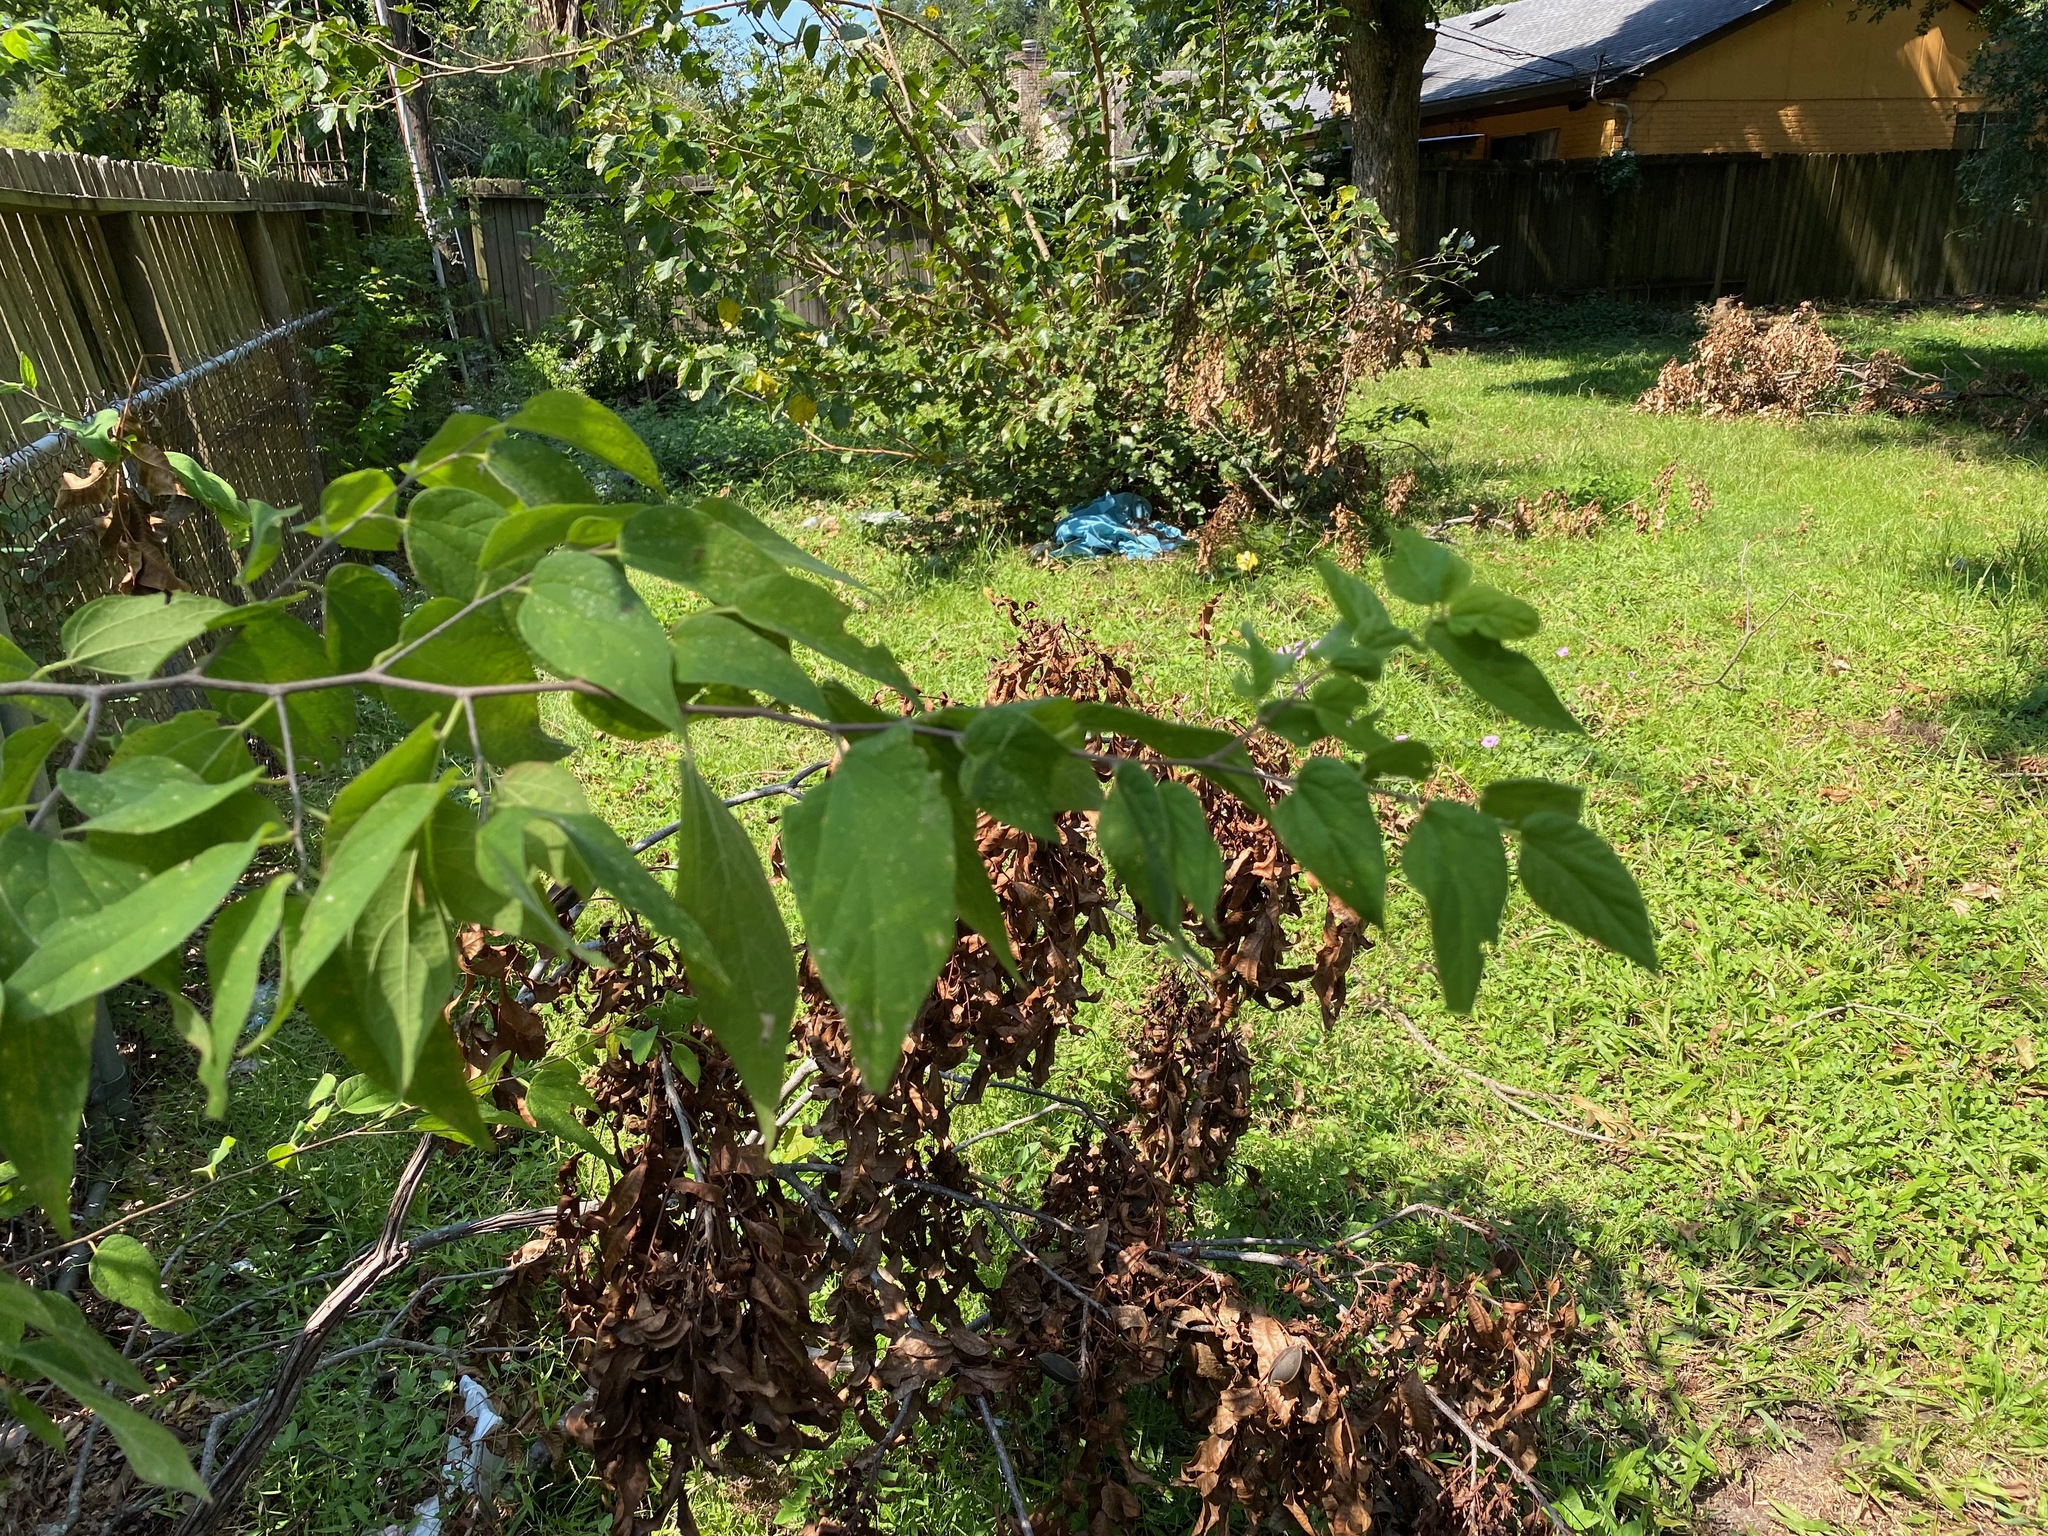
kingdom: Plantae
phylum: Tracheophyta
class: Magnoliopsida
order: Rosales
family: Cannabaceae
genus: Celtis
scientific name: Celtis laevigata
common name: Sugarberry
